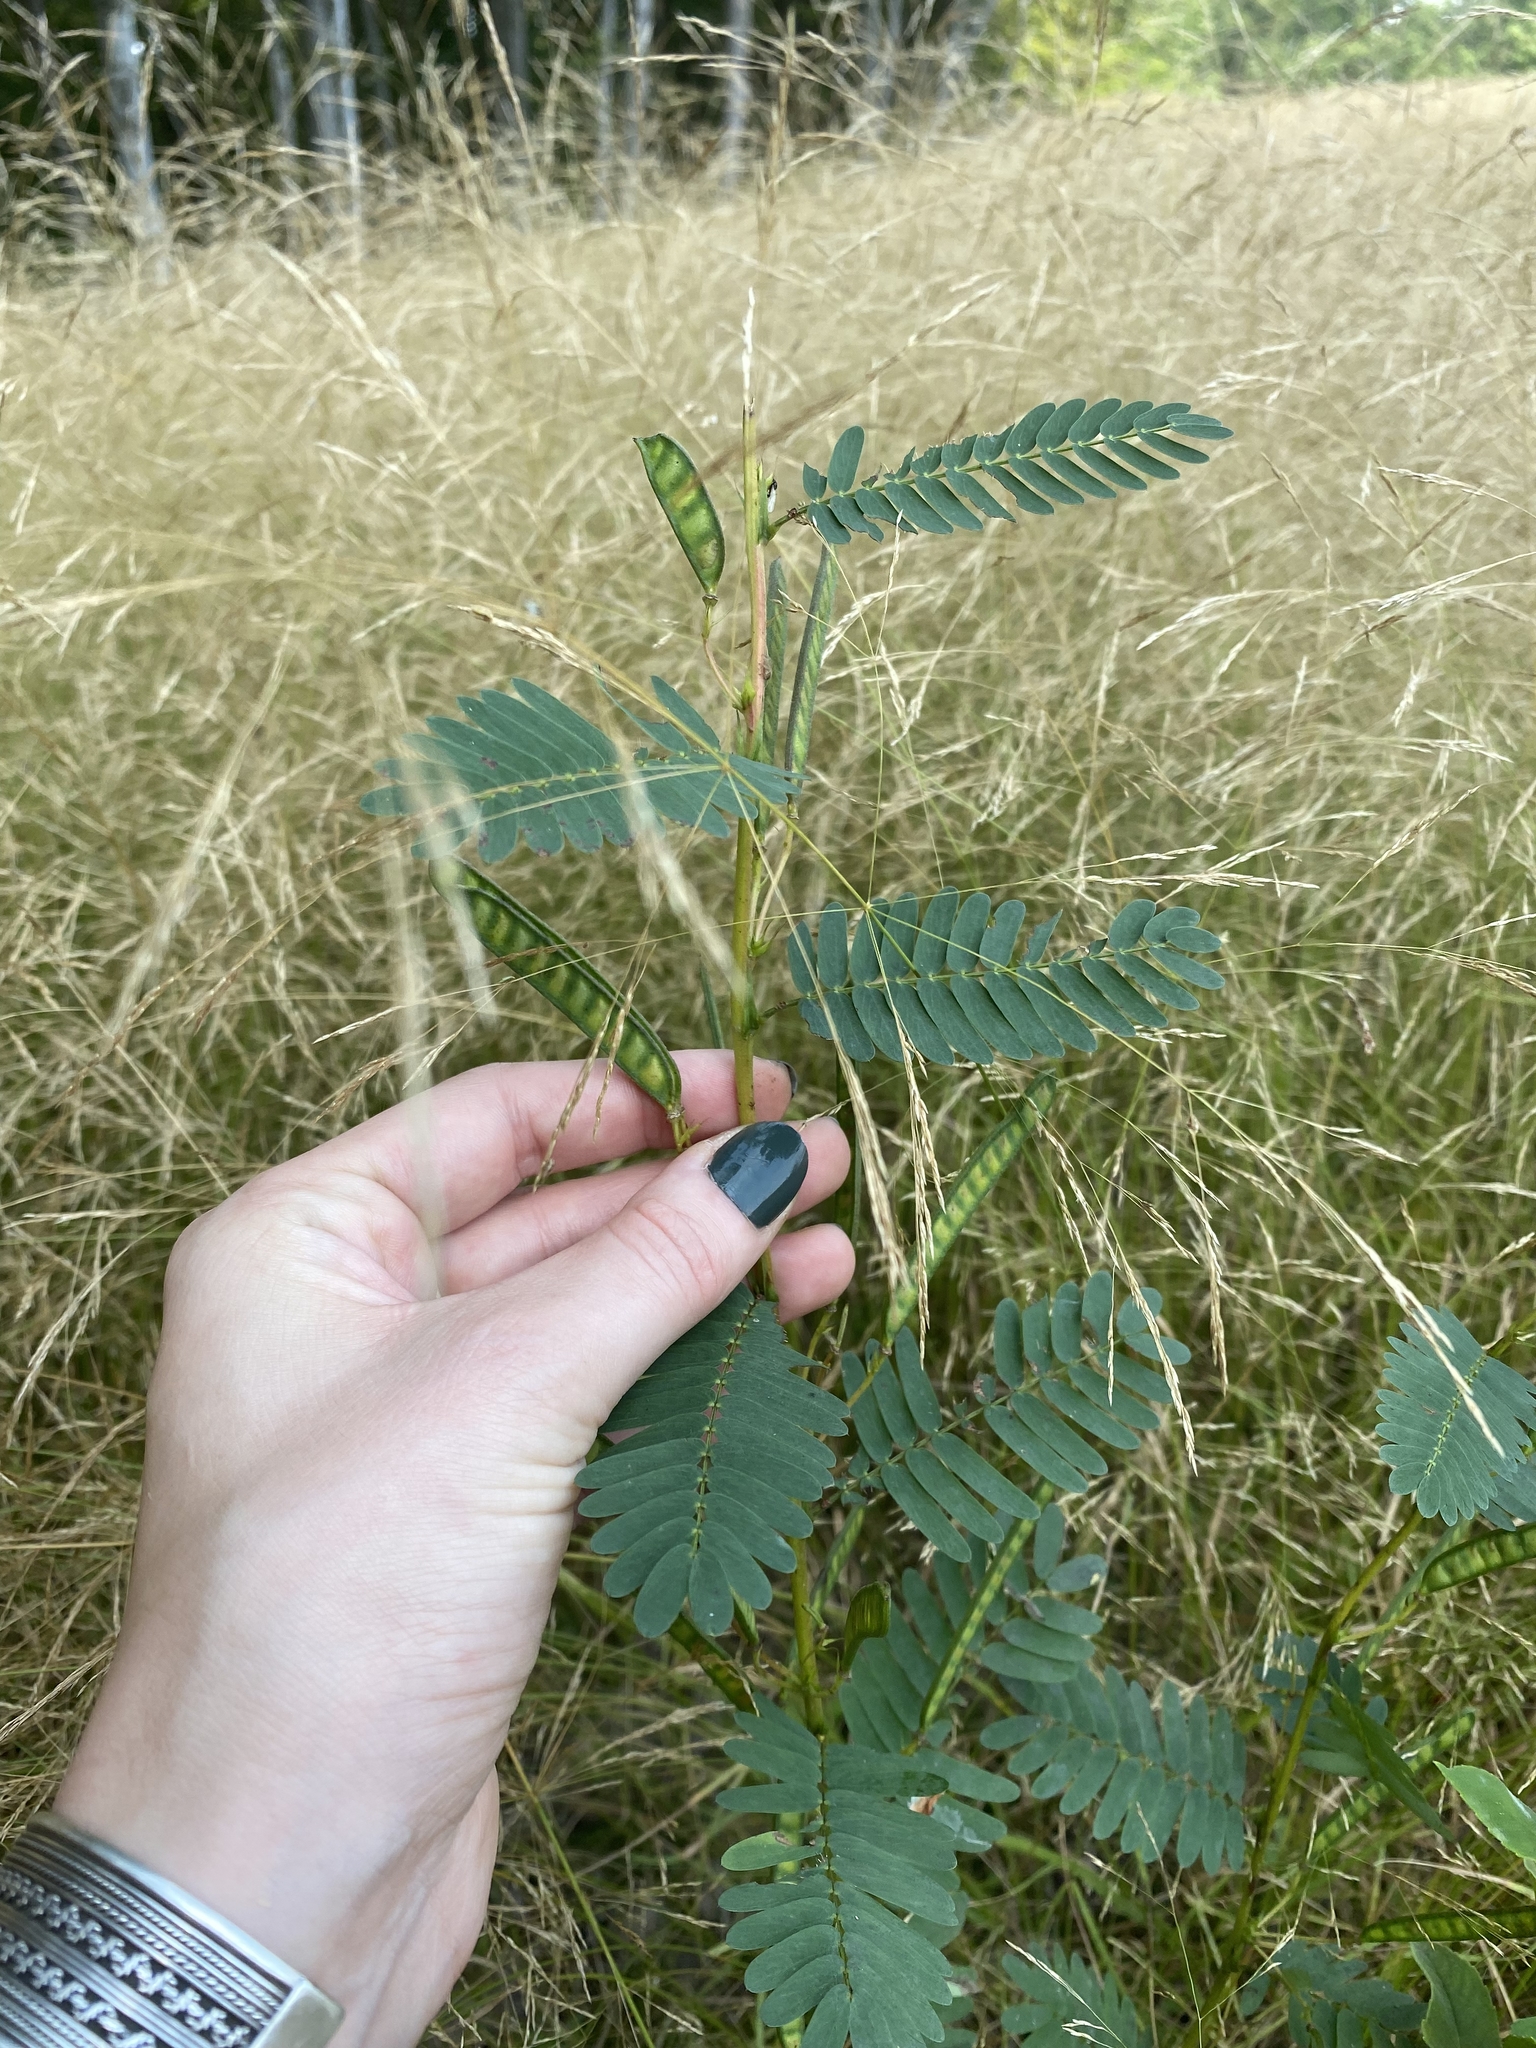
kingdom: Plantae
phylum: Tracheophyta
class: Magnoliopsida
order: Fabales
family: Fabaceae
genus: Chamaecrista
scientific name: Chamaecrista fasciculata
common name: Golden cassia
